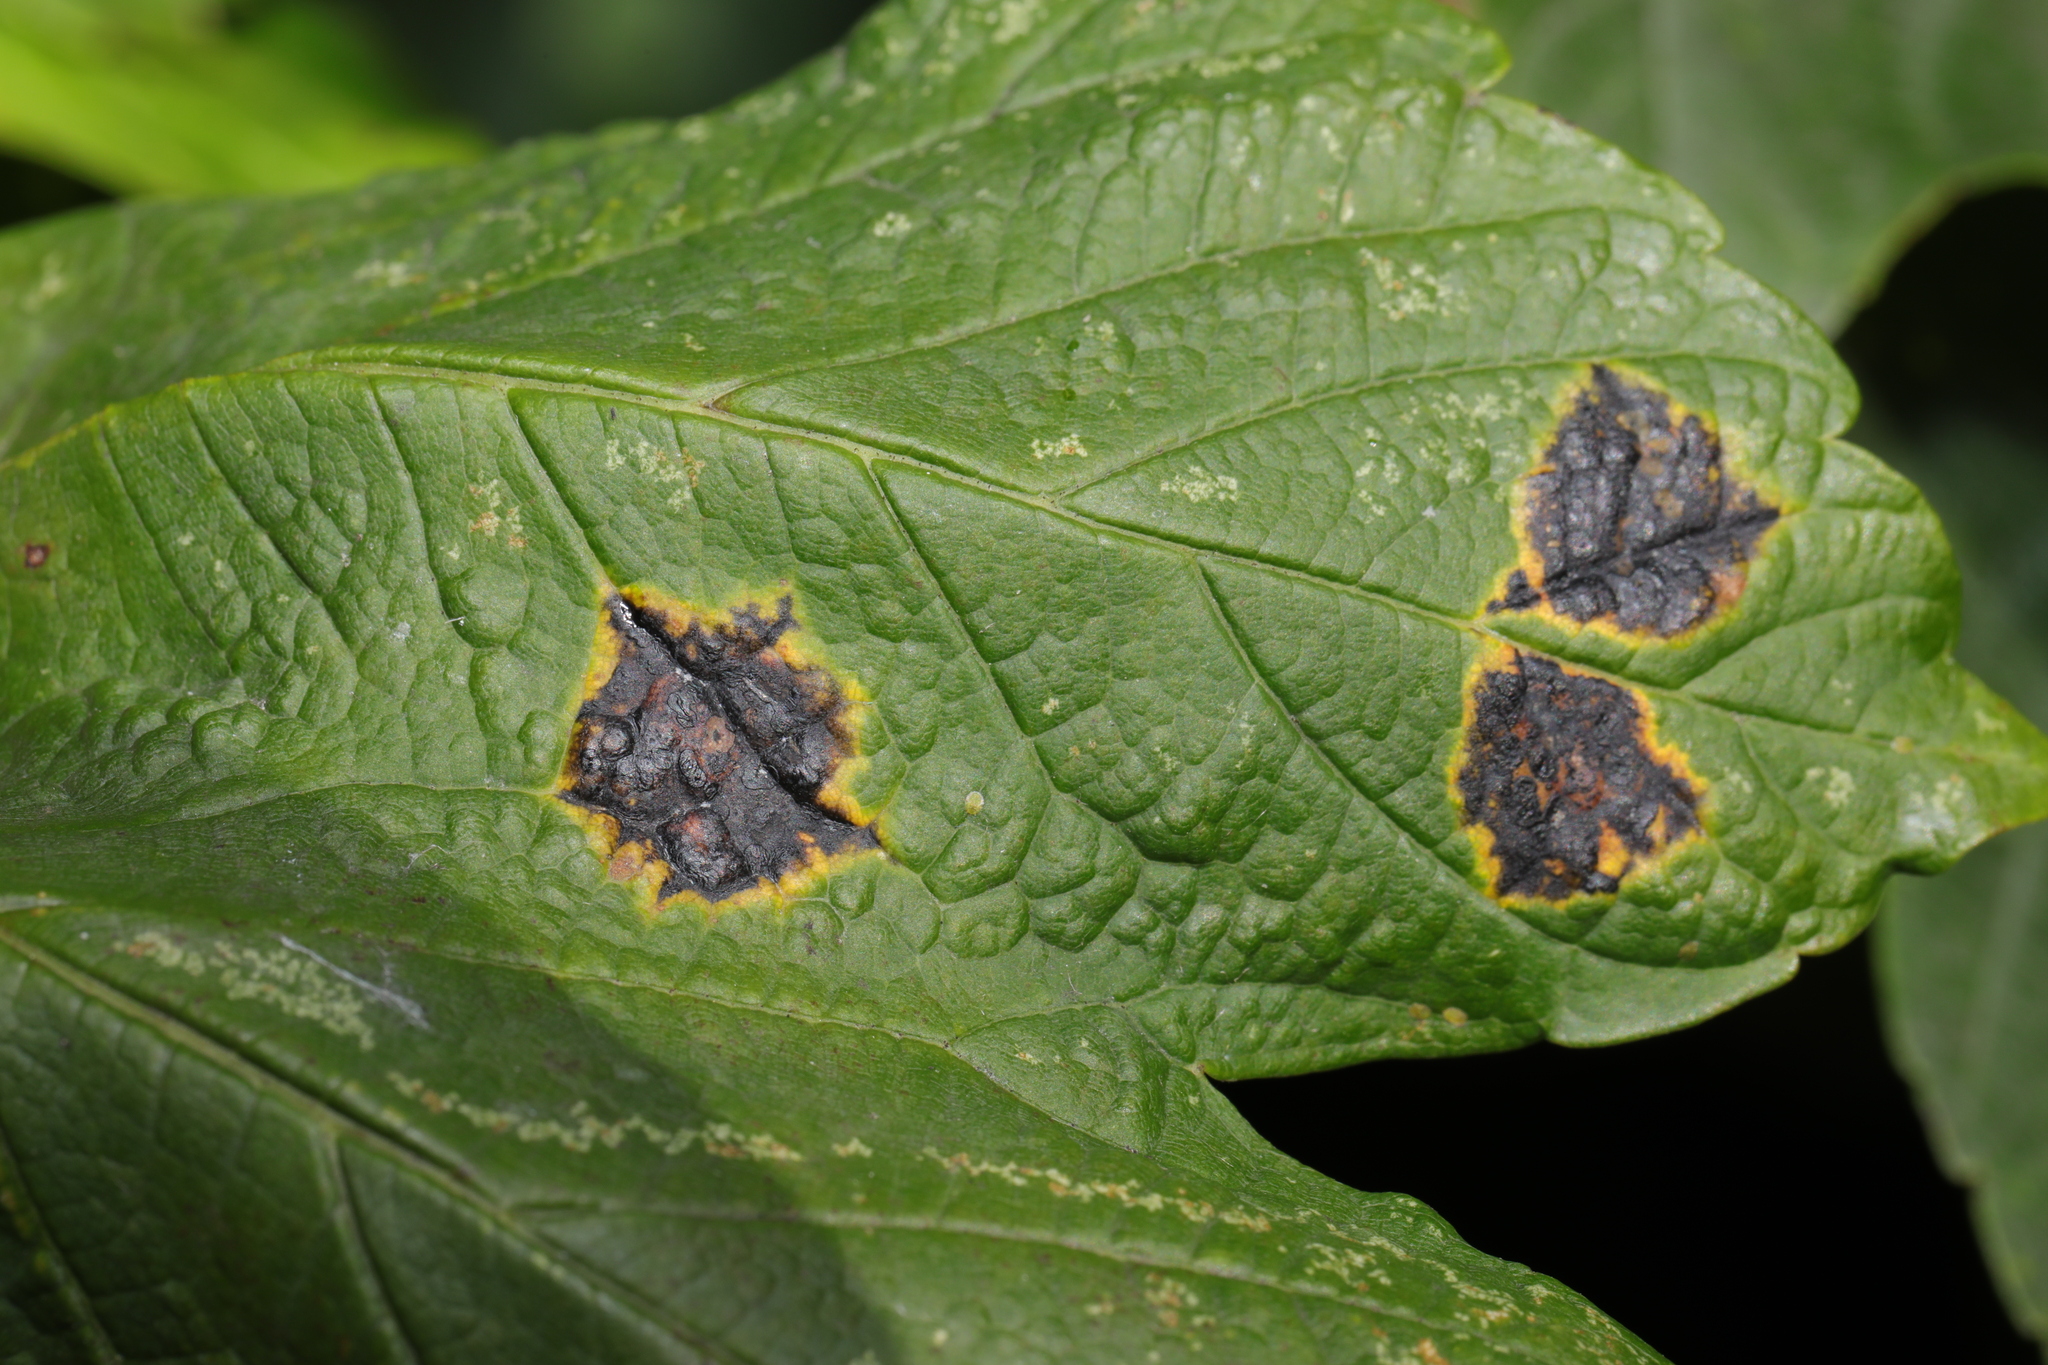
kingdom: Fungi
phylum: Ascomycota
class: Leotiomycetes
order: Rhytismatales
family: Rhytismataceae
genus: Rhytisma
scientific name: Rhytisma acerinum
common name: European tar spot
